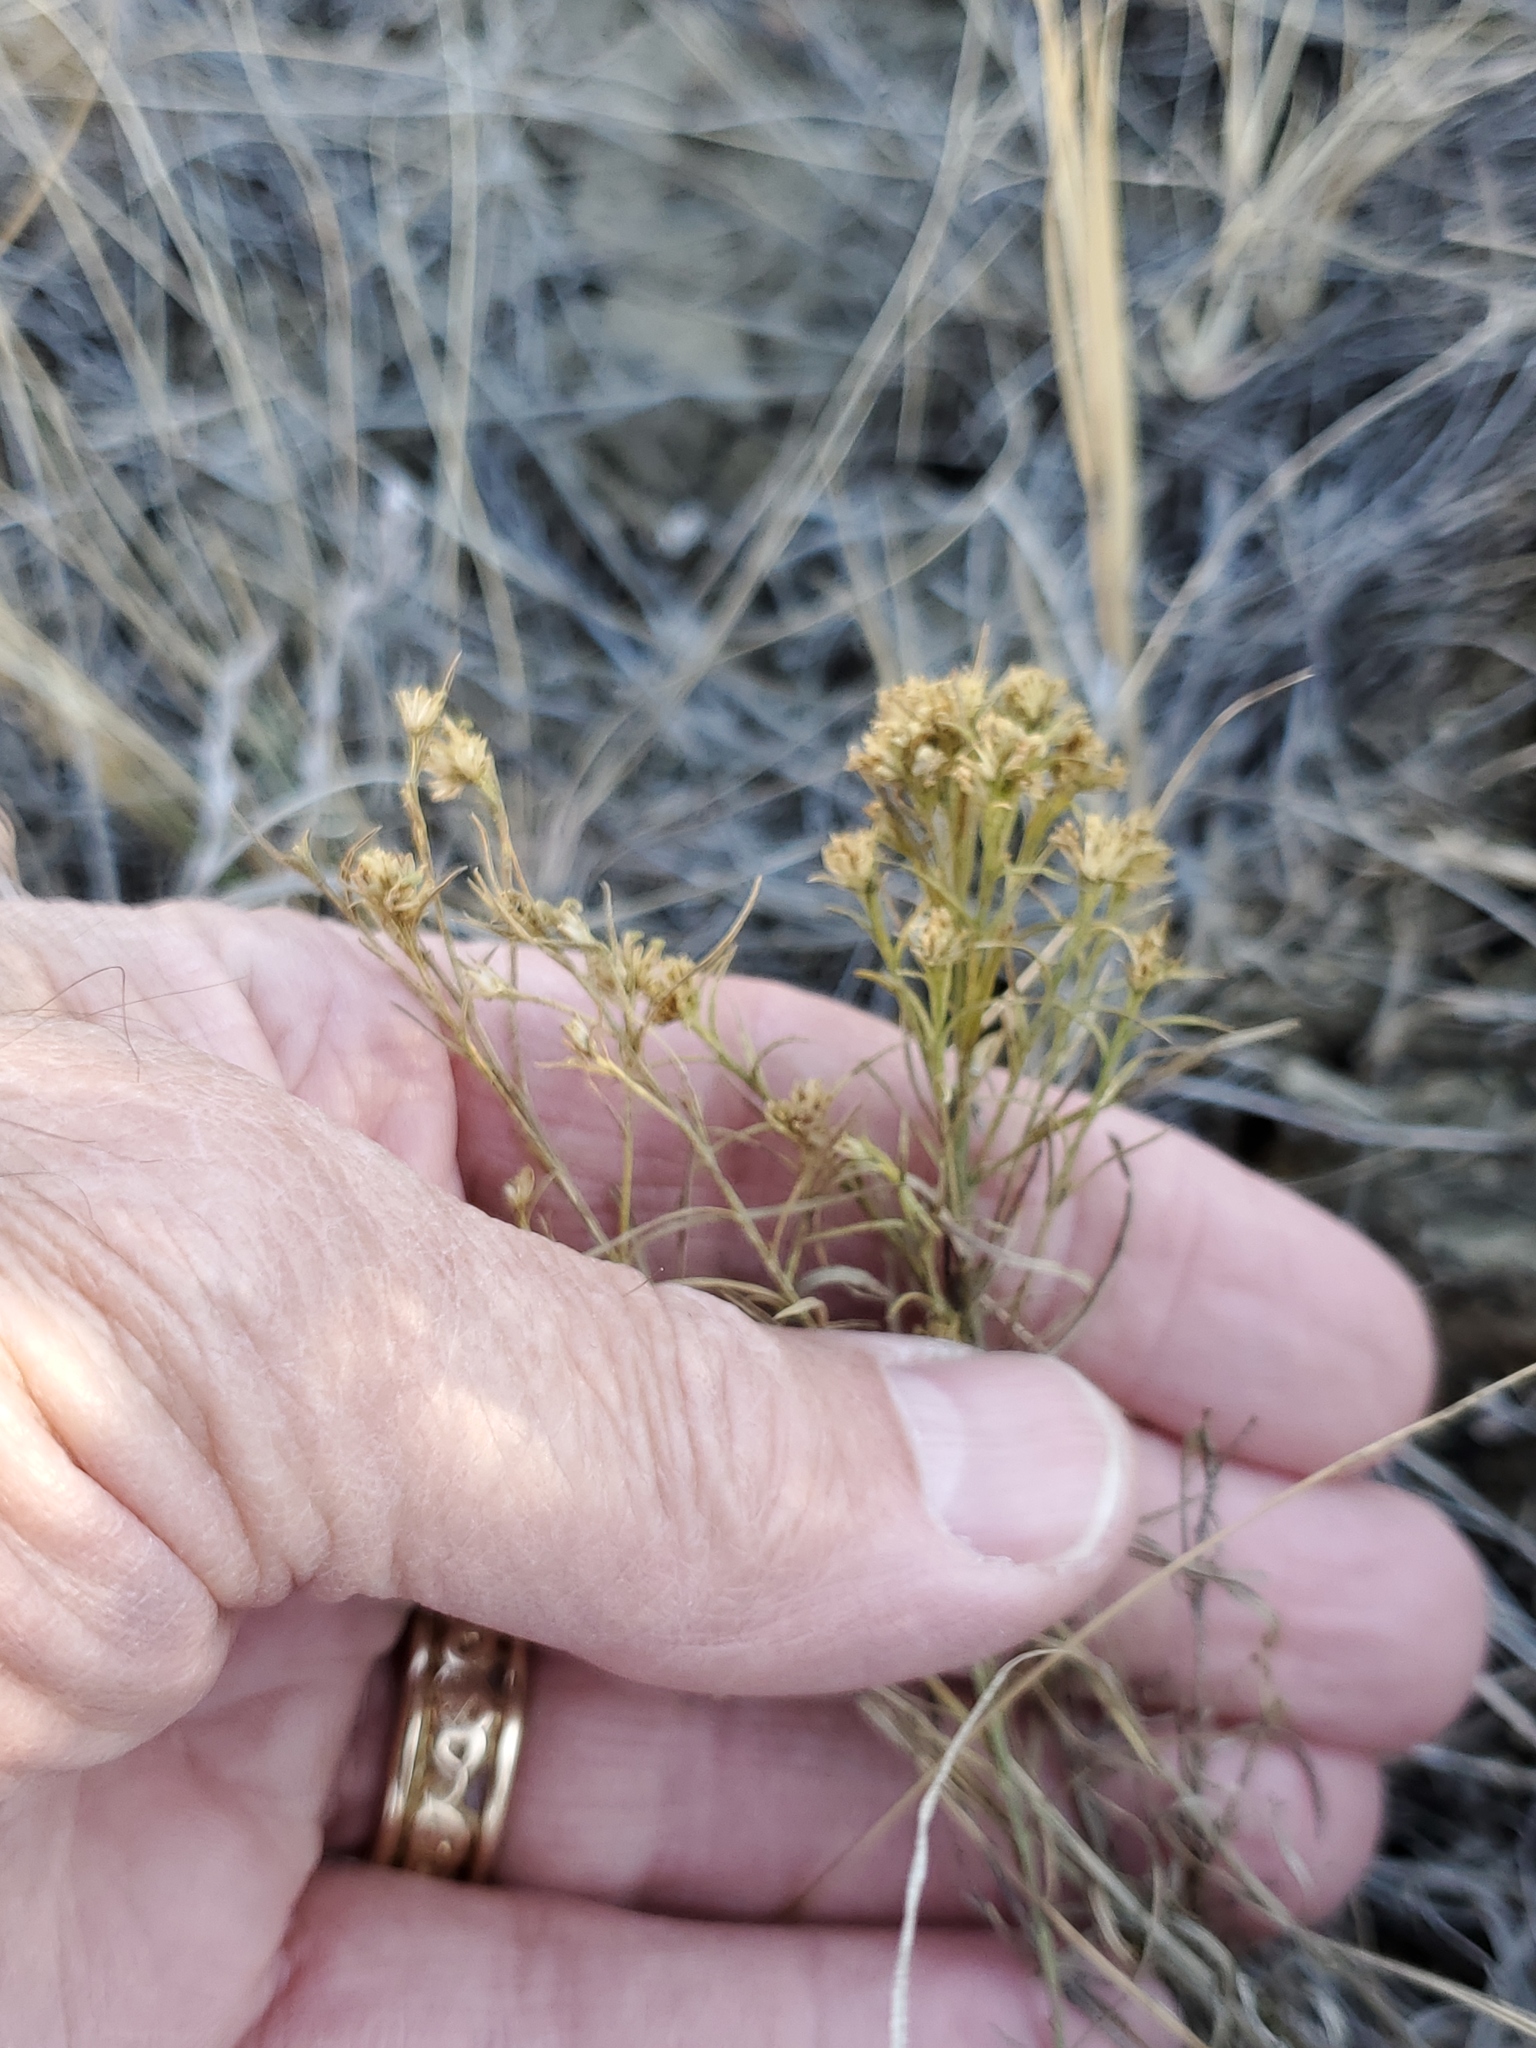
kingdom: Plantae
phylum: Tracheophyta
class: Magnoliopsida
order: Asterales
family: Asteraceae
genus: Gutierrezia
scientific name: Gutierrezia sarothrae
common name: Broom snakeweed
